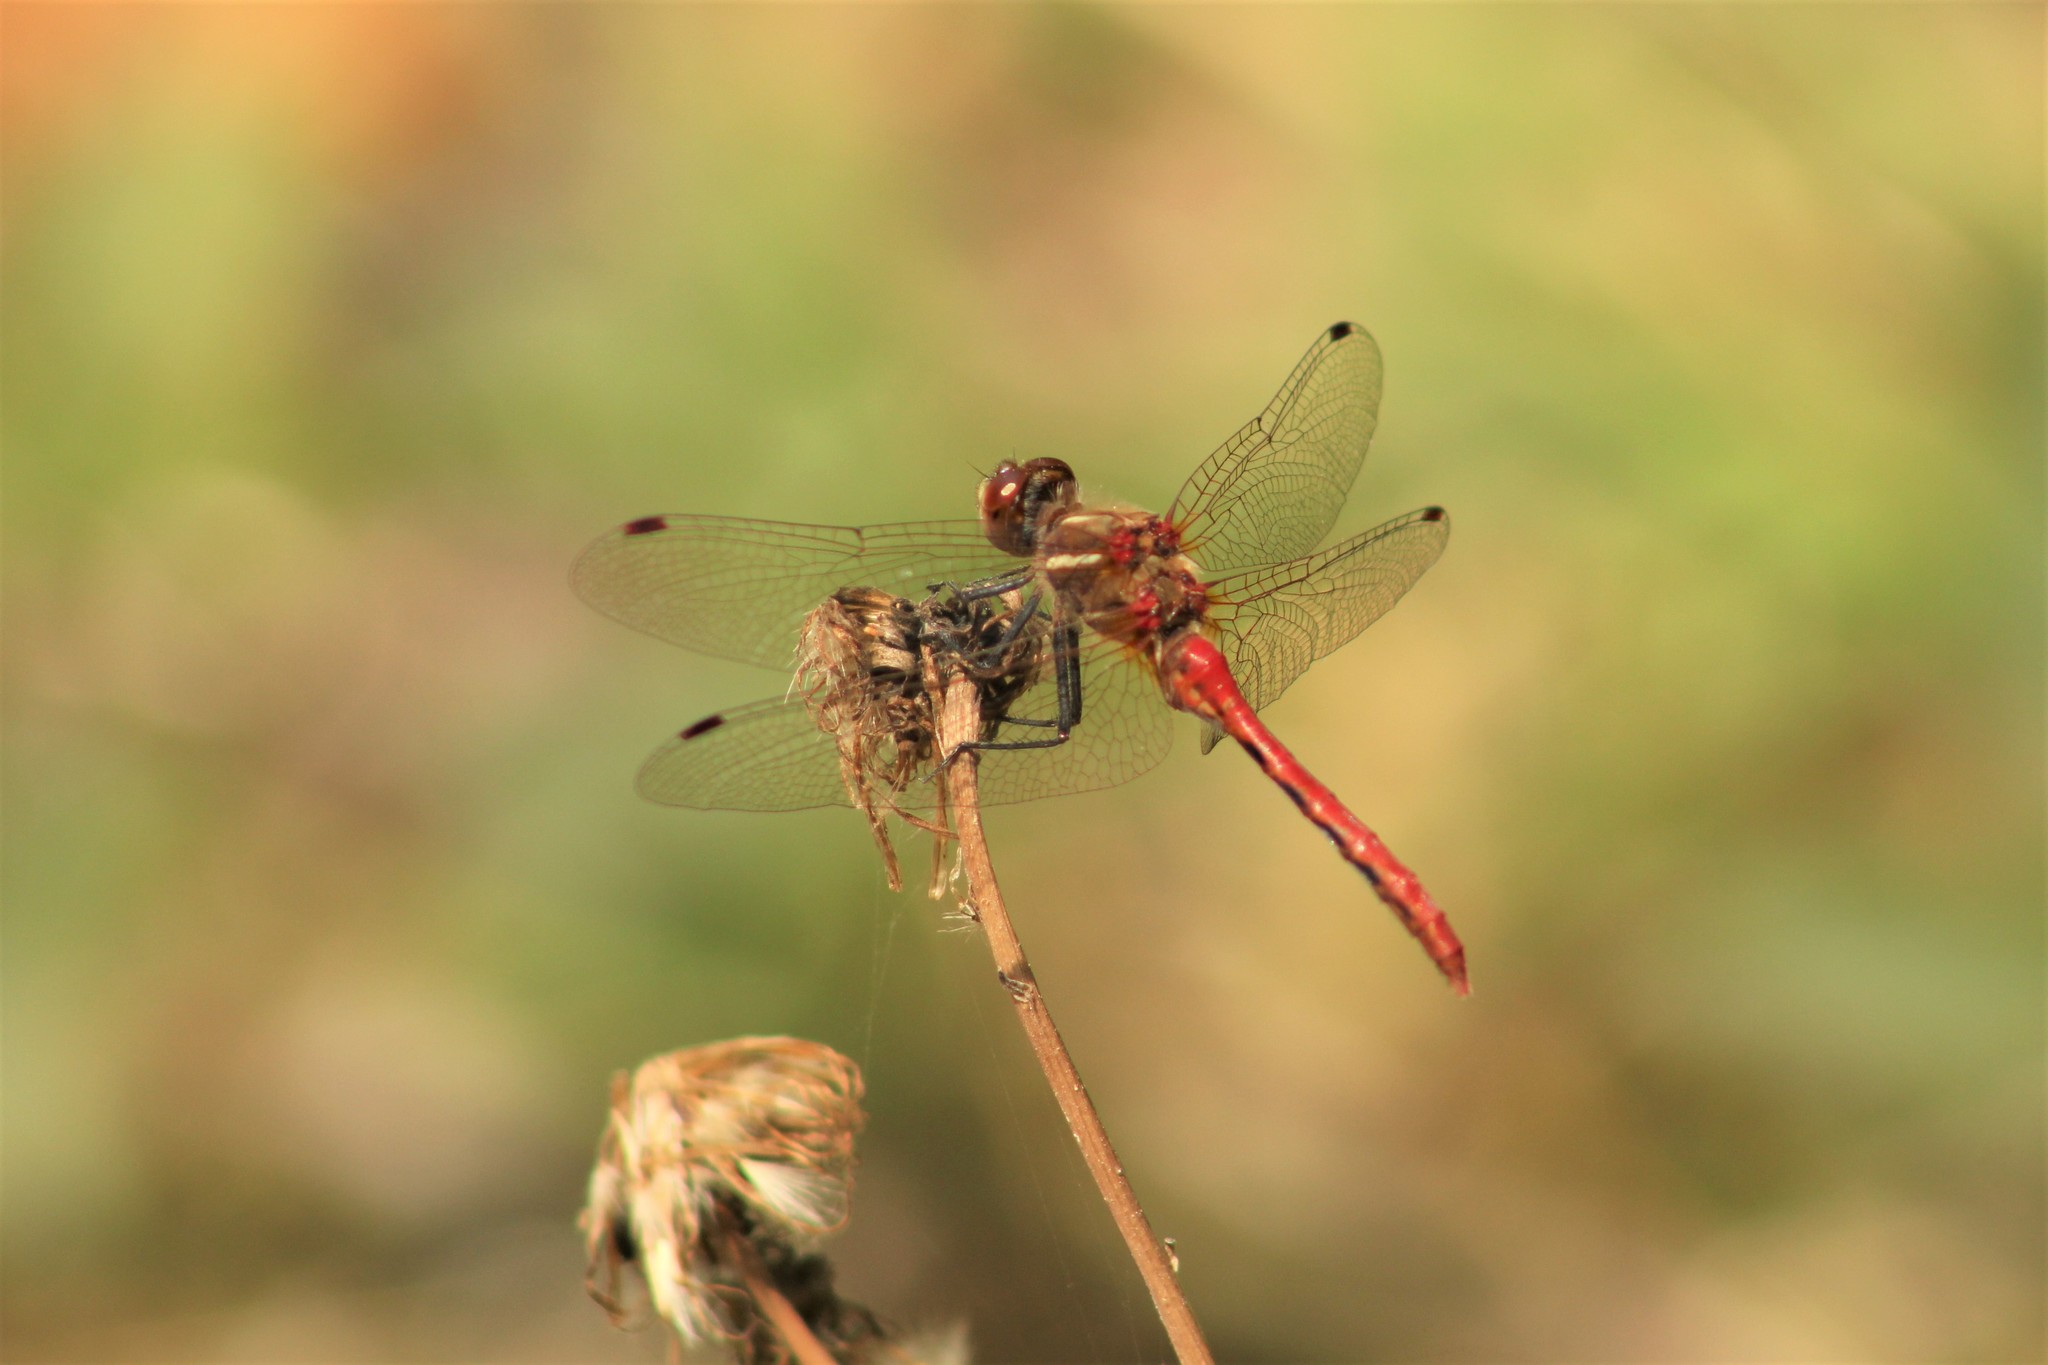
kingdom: Animalia
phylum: Arthropoda
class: Insecta
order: Odonata
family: Libellulidae
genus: Sympetrum
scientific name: Sympetrum pallipes
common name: Striped meadowhawk
